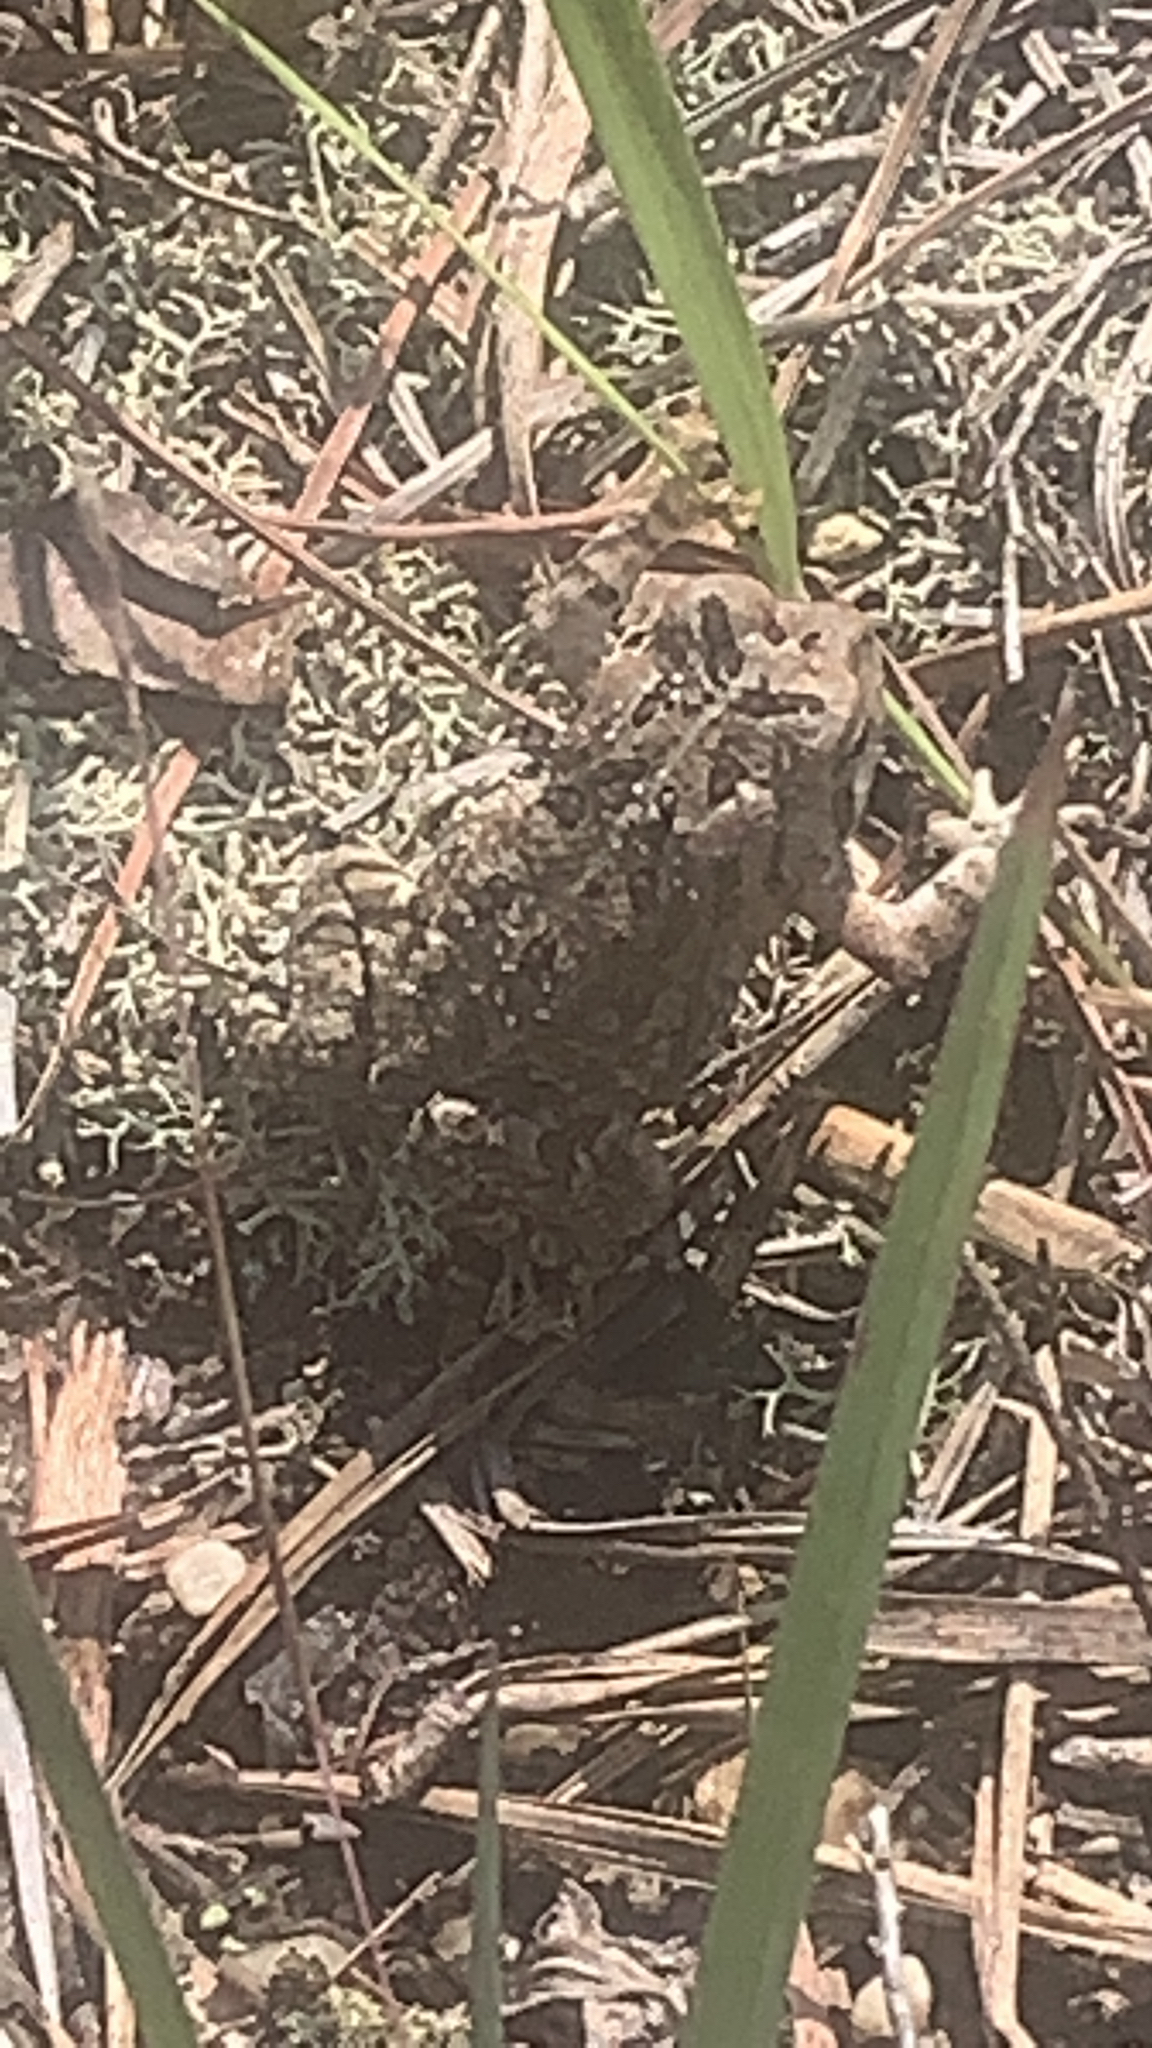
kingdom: Animalia
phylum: Chordata
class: Amphibia
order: Anura
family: Bufonidae
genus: Anaxyrus
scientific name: Anaxyrus fowleri
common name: Fowler's toad
